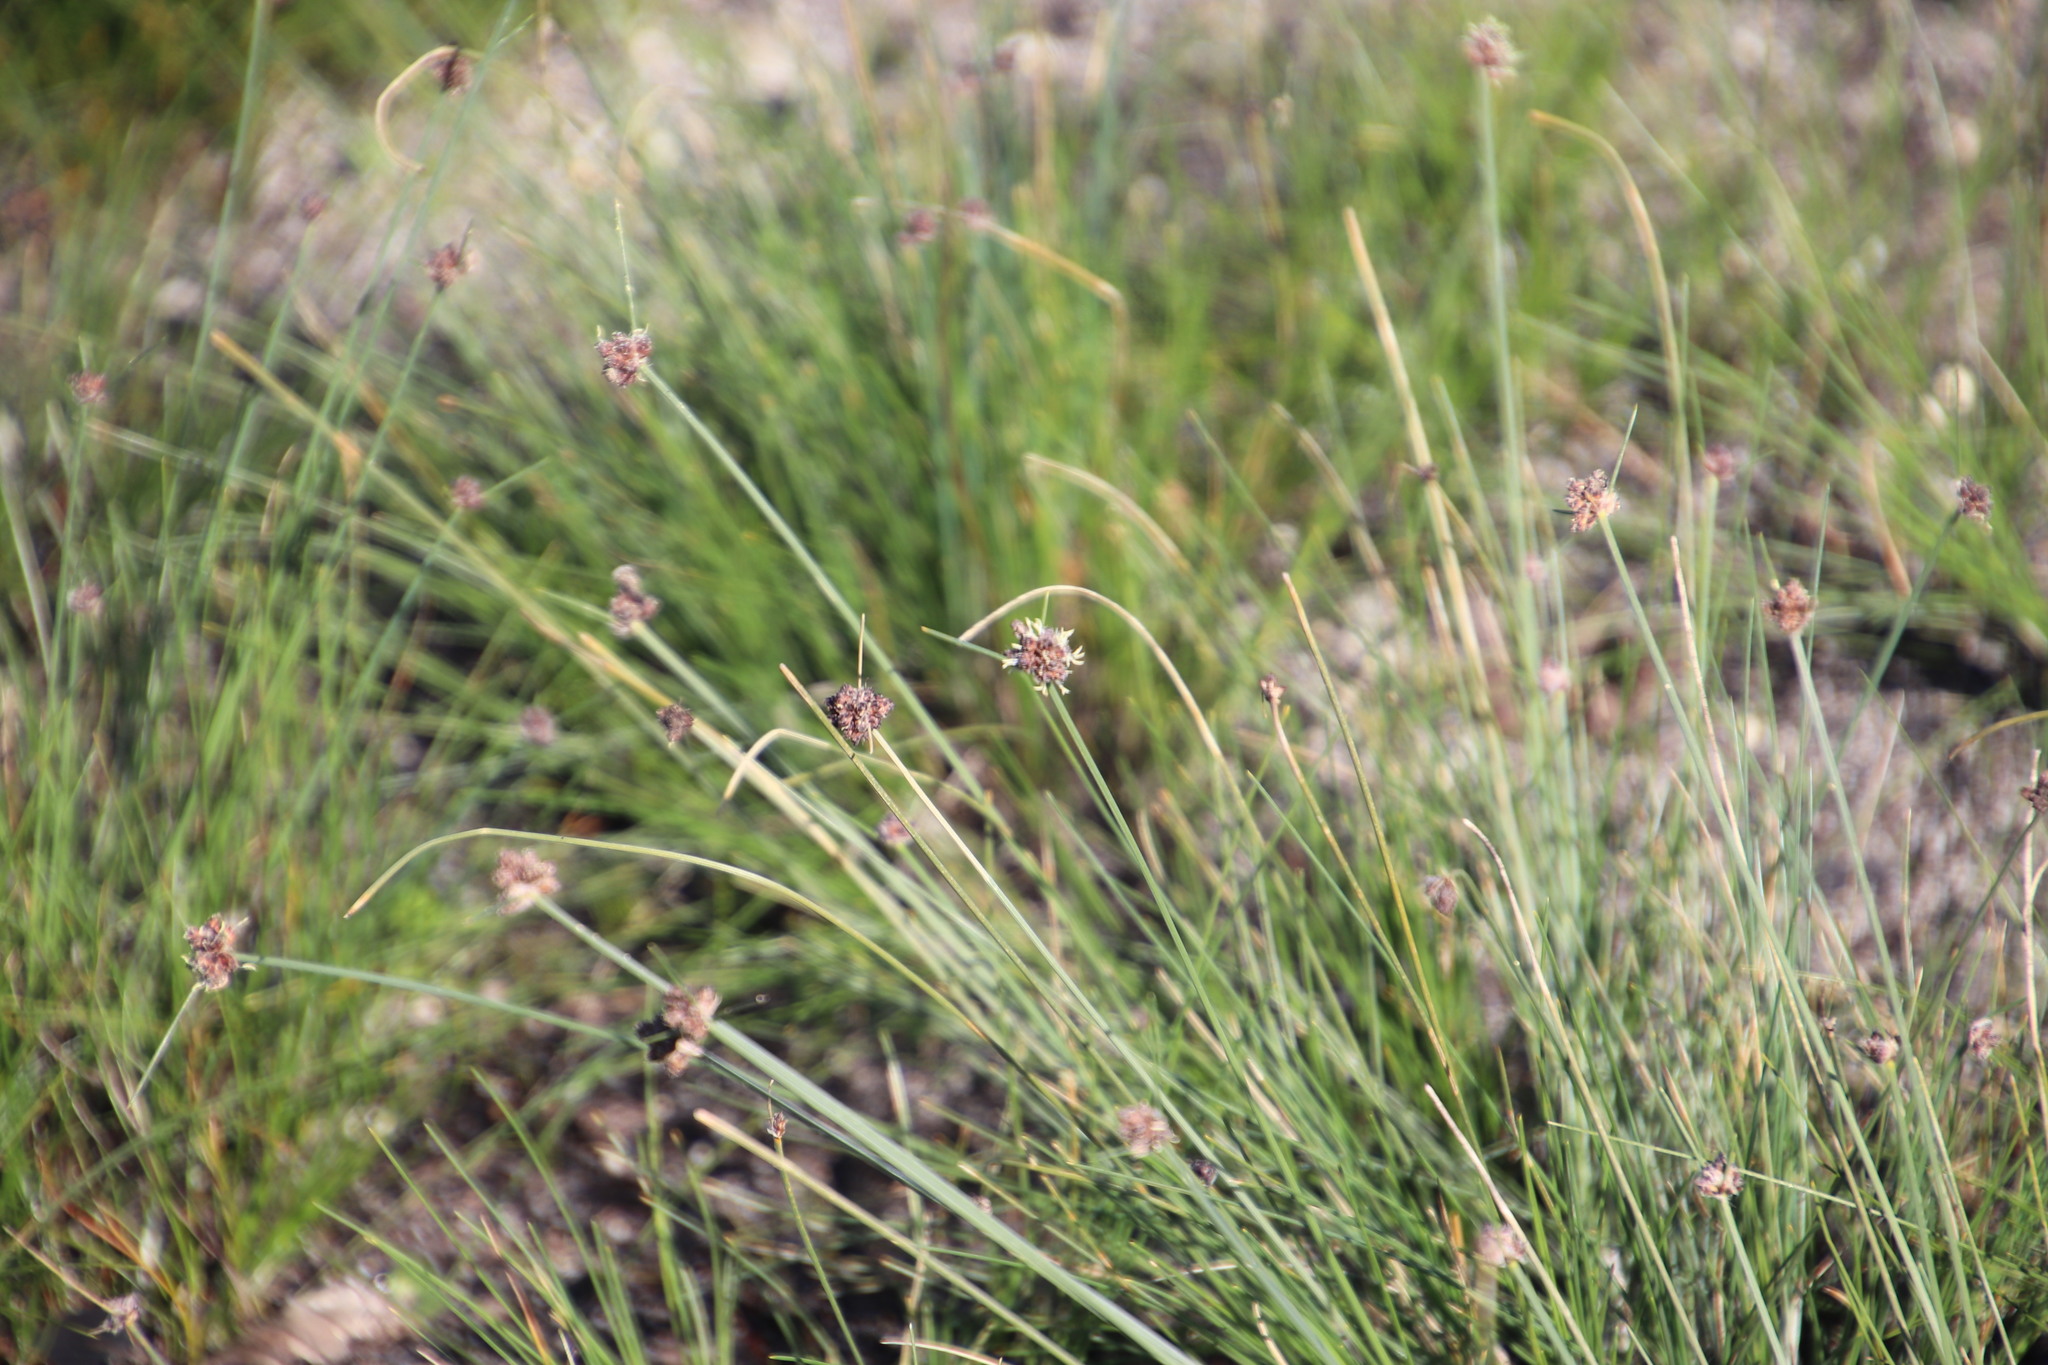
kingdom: Plantae
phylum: Tracheophyta
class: Liliopsida
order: Poales
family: Cyperaceae
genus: Ficinia
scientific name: Ficinia ecklonea
